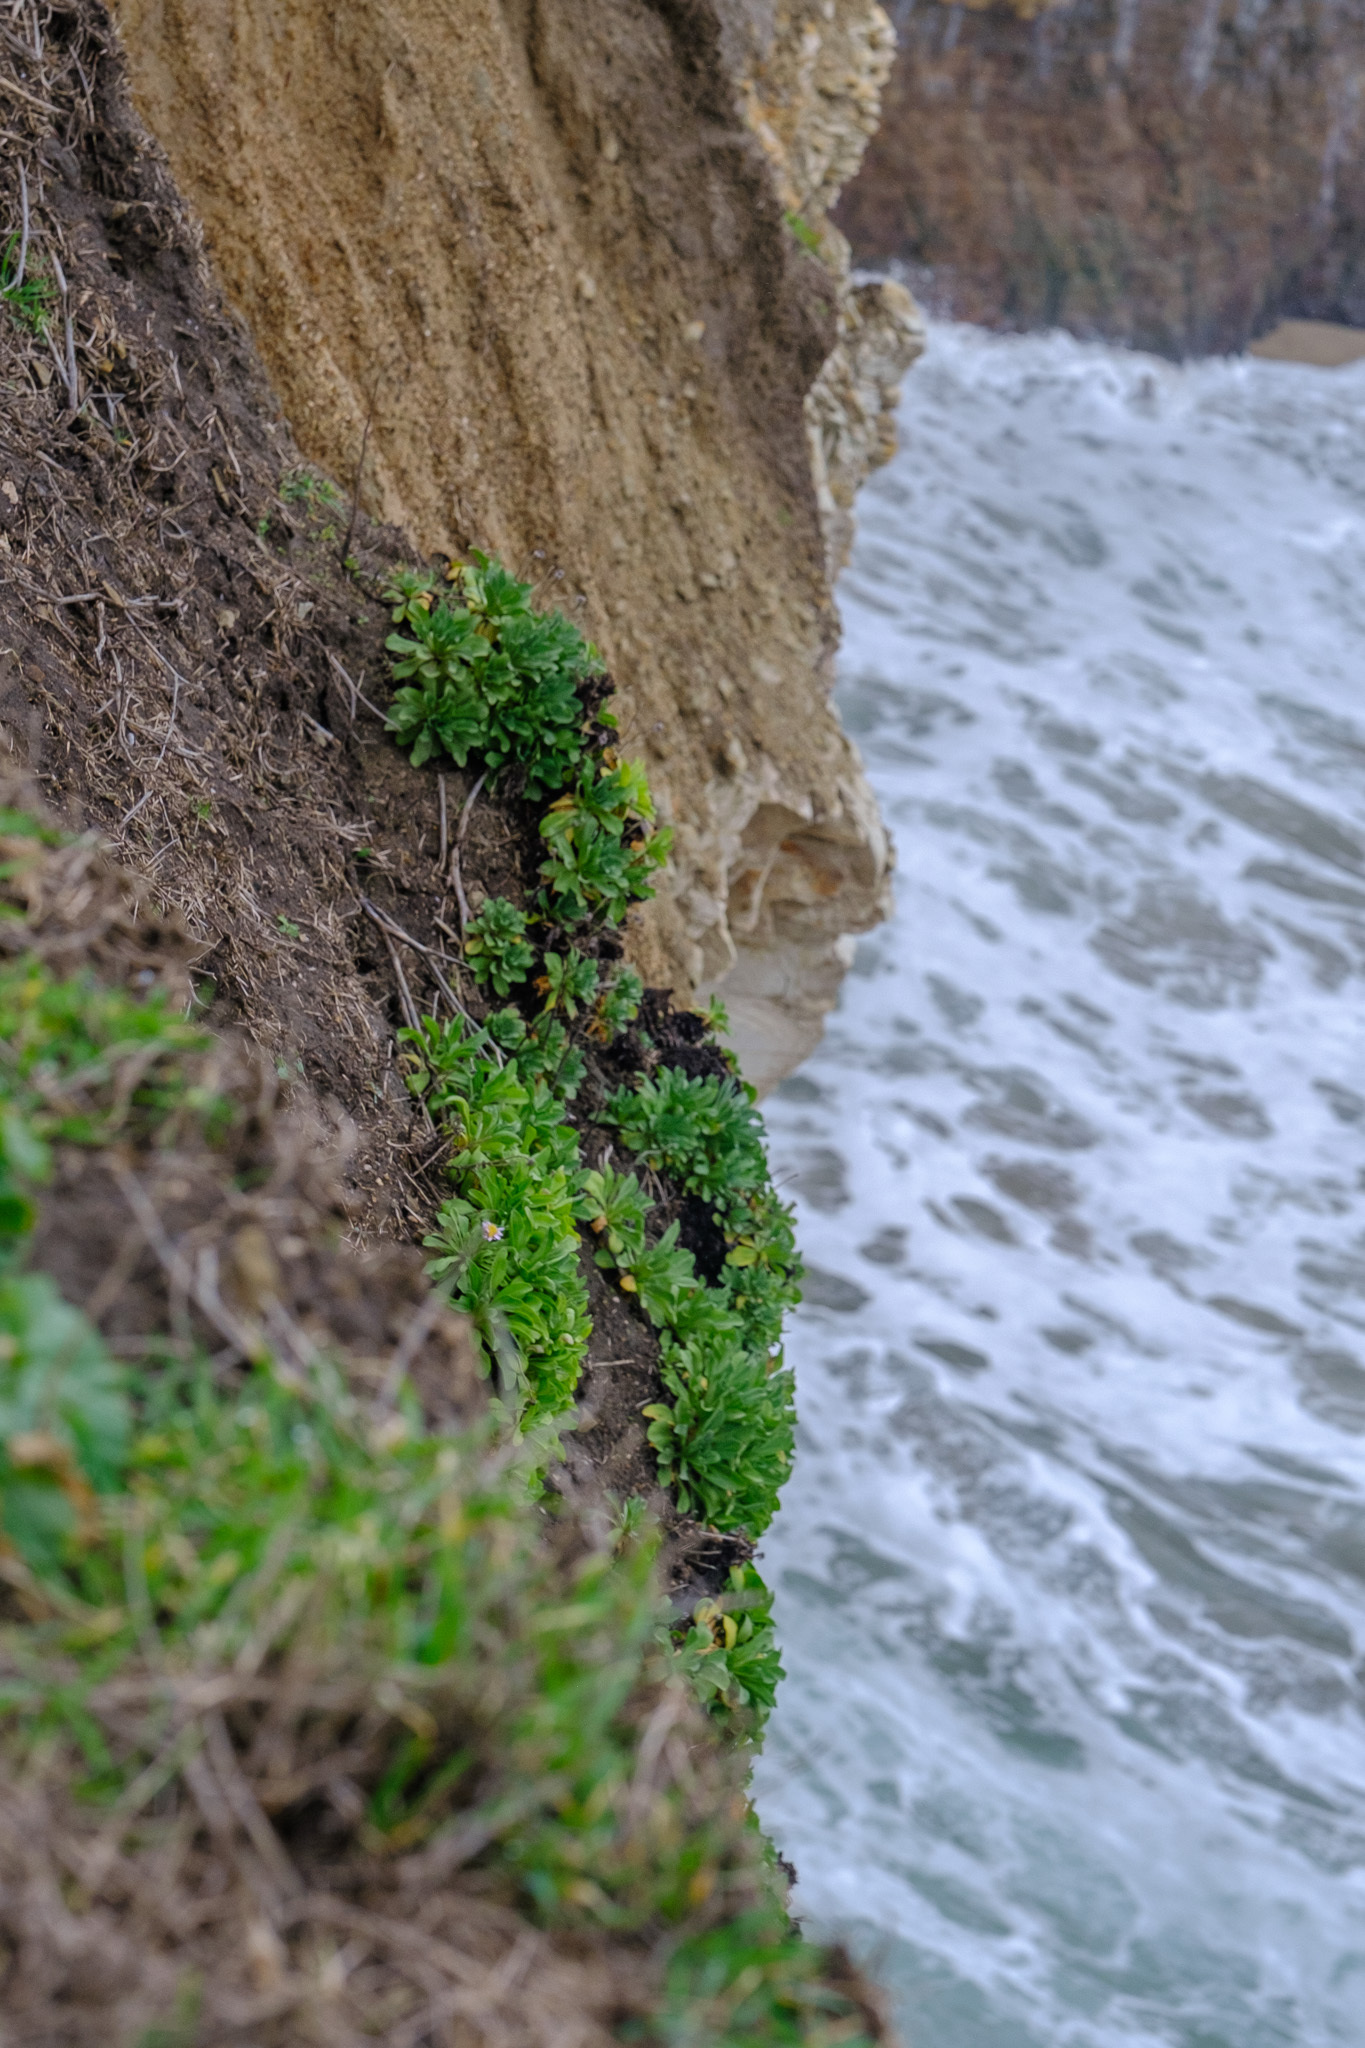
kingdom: Plantae
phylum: Tracheophyta
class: Magnoliopsida
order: Asterales
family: Asteraceae
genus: Erigeron
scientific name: Erigeron glaucus
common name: Seaside daisy
